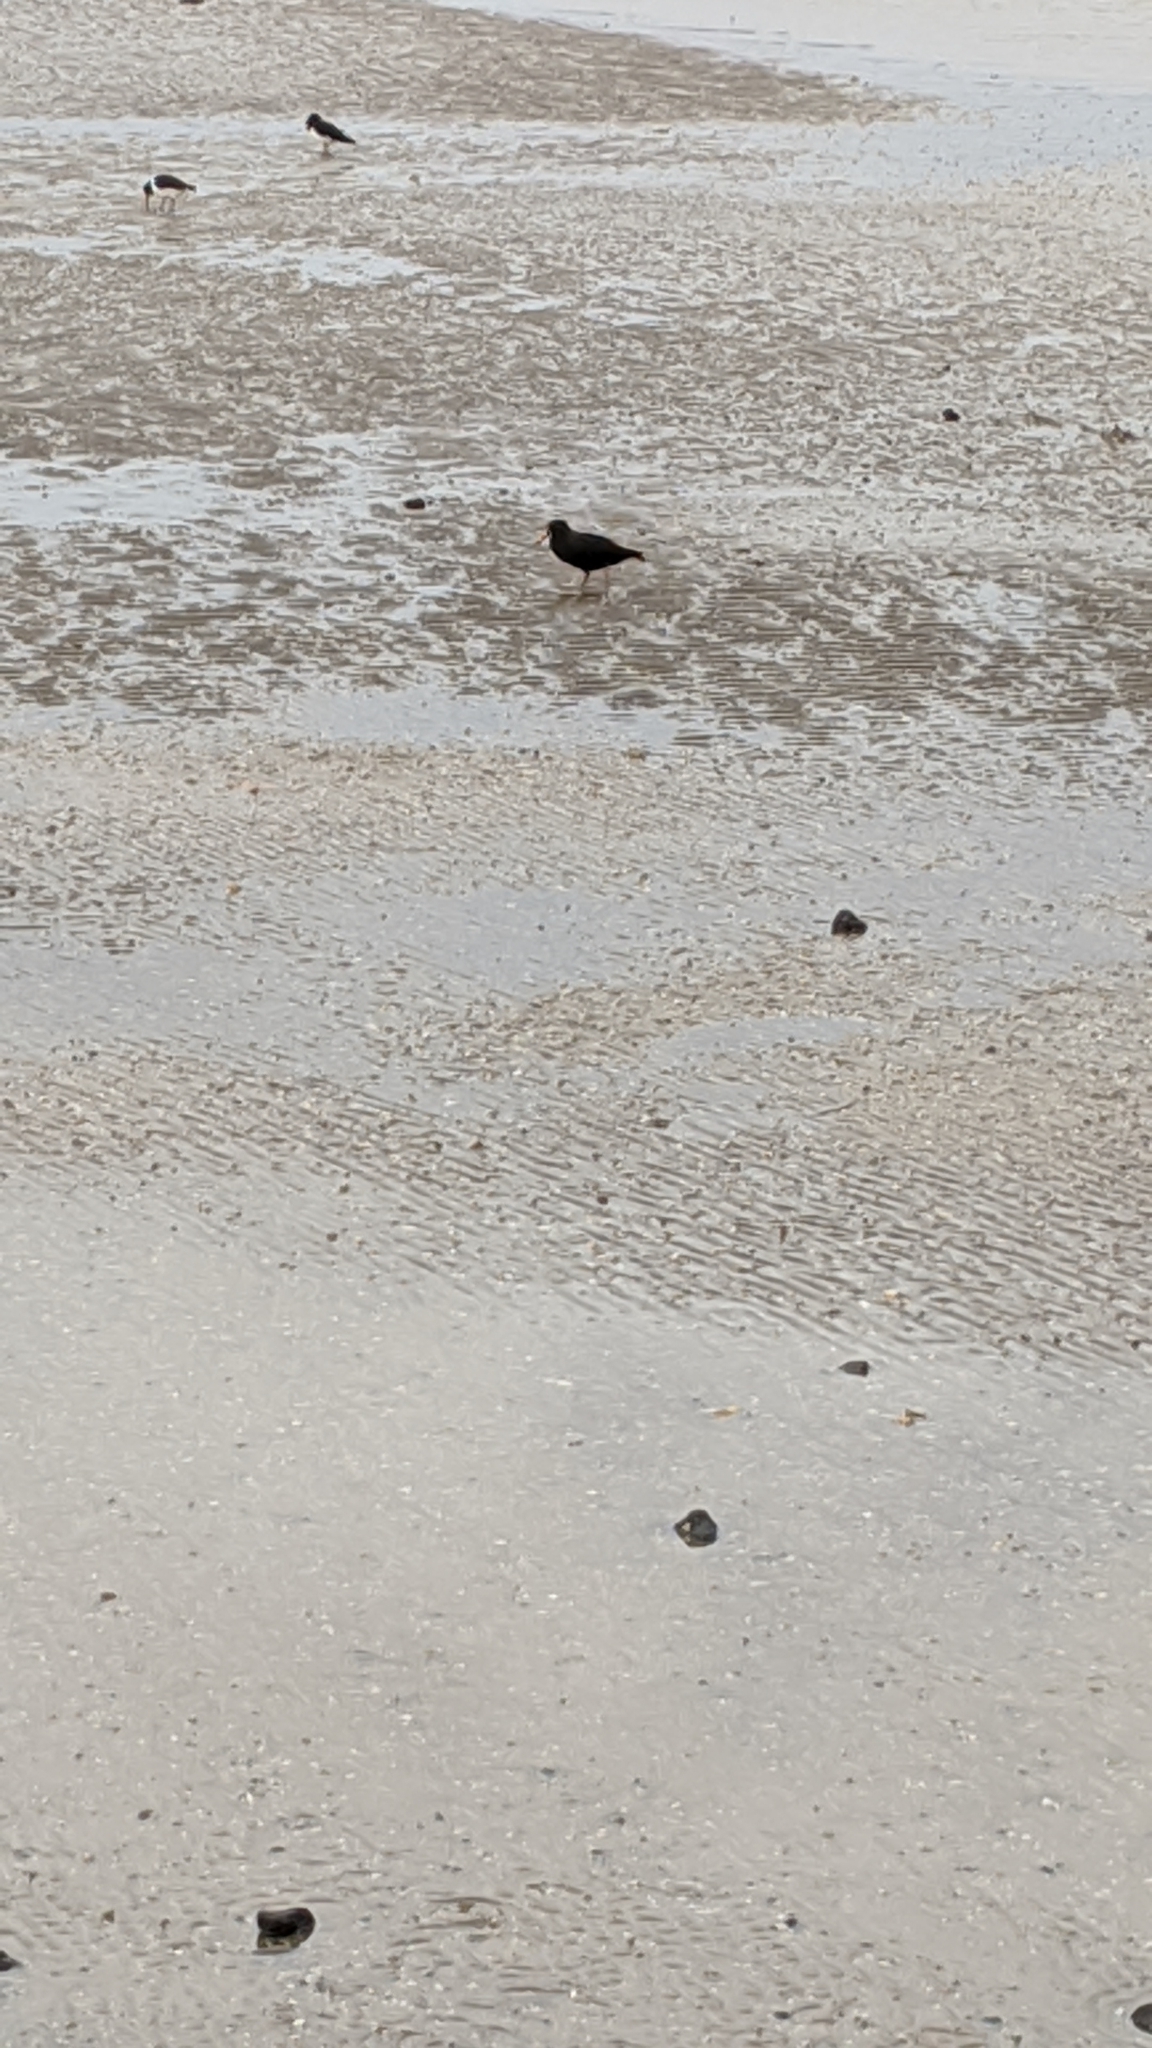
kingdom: Animalia
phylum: Chordata
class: Aves
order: Charadriiformes
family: Haematopodidae
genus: Haematopus
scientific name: Haematopus unicolor
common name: Variable oystercatcher
